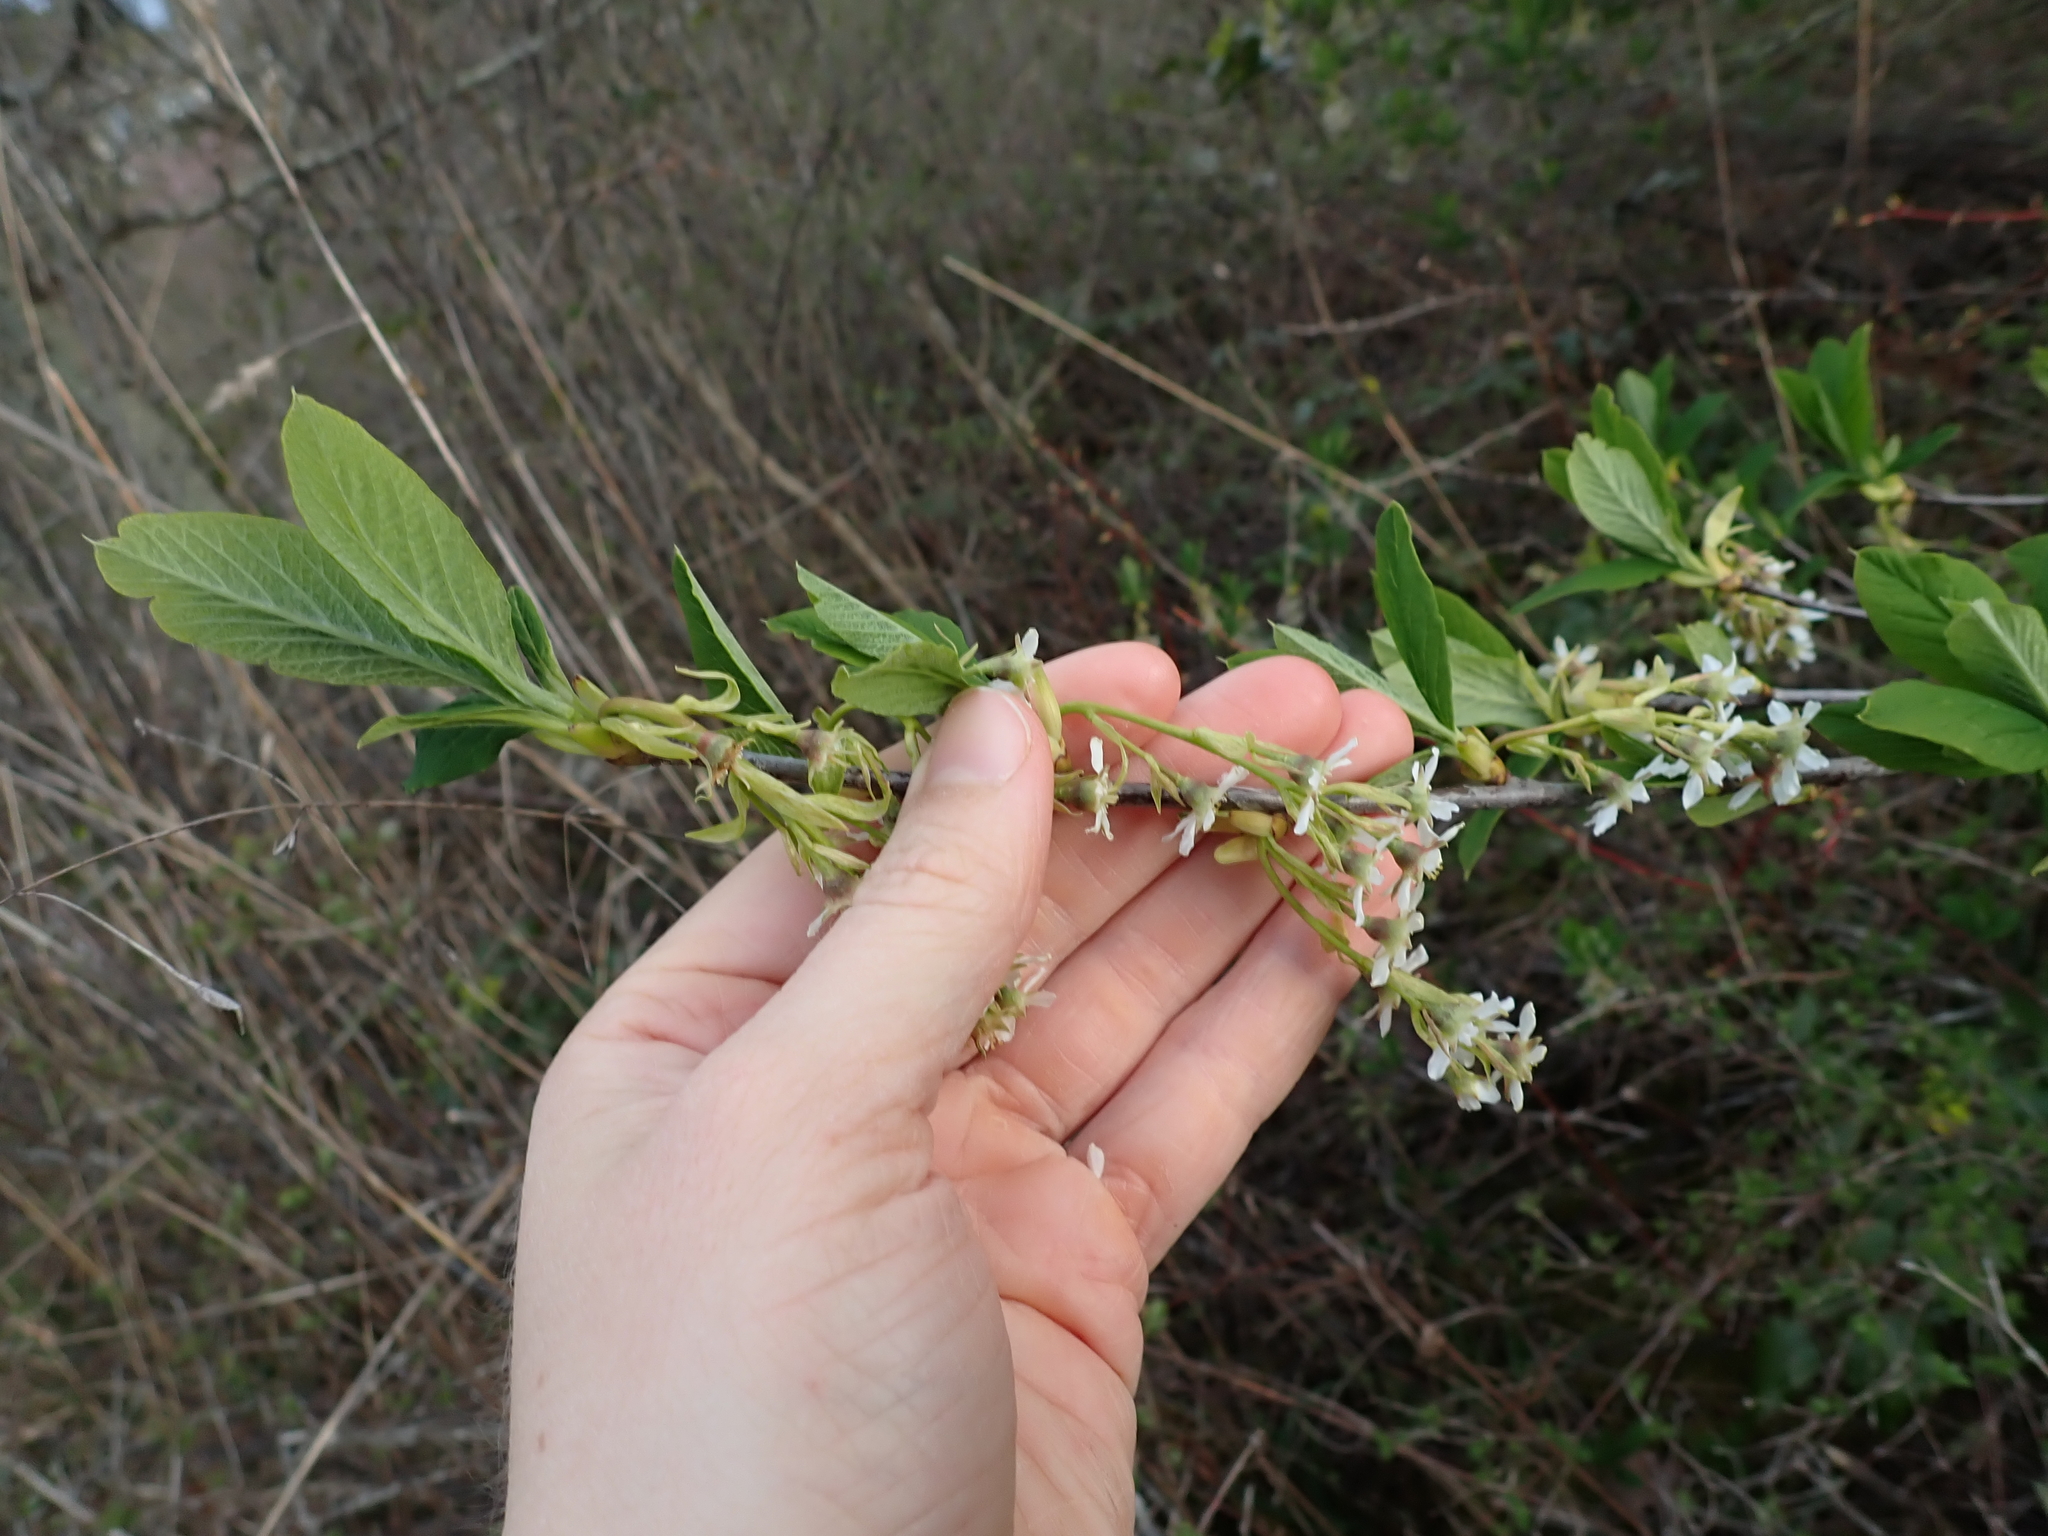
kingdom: Plantae
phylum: Tracheophyta
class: Magnoliopsida
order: Rosales
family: Rosaceae
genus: Oemleria
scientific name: Oemleria cerasiformis
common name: Osoberry
